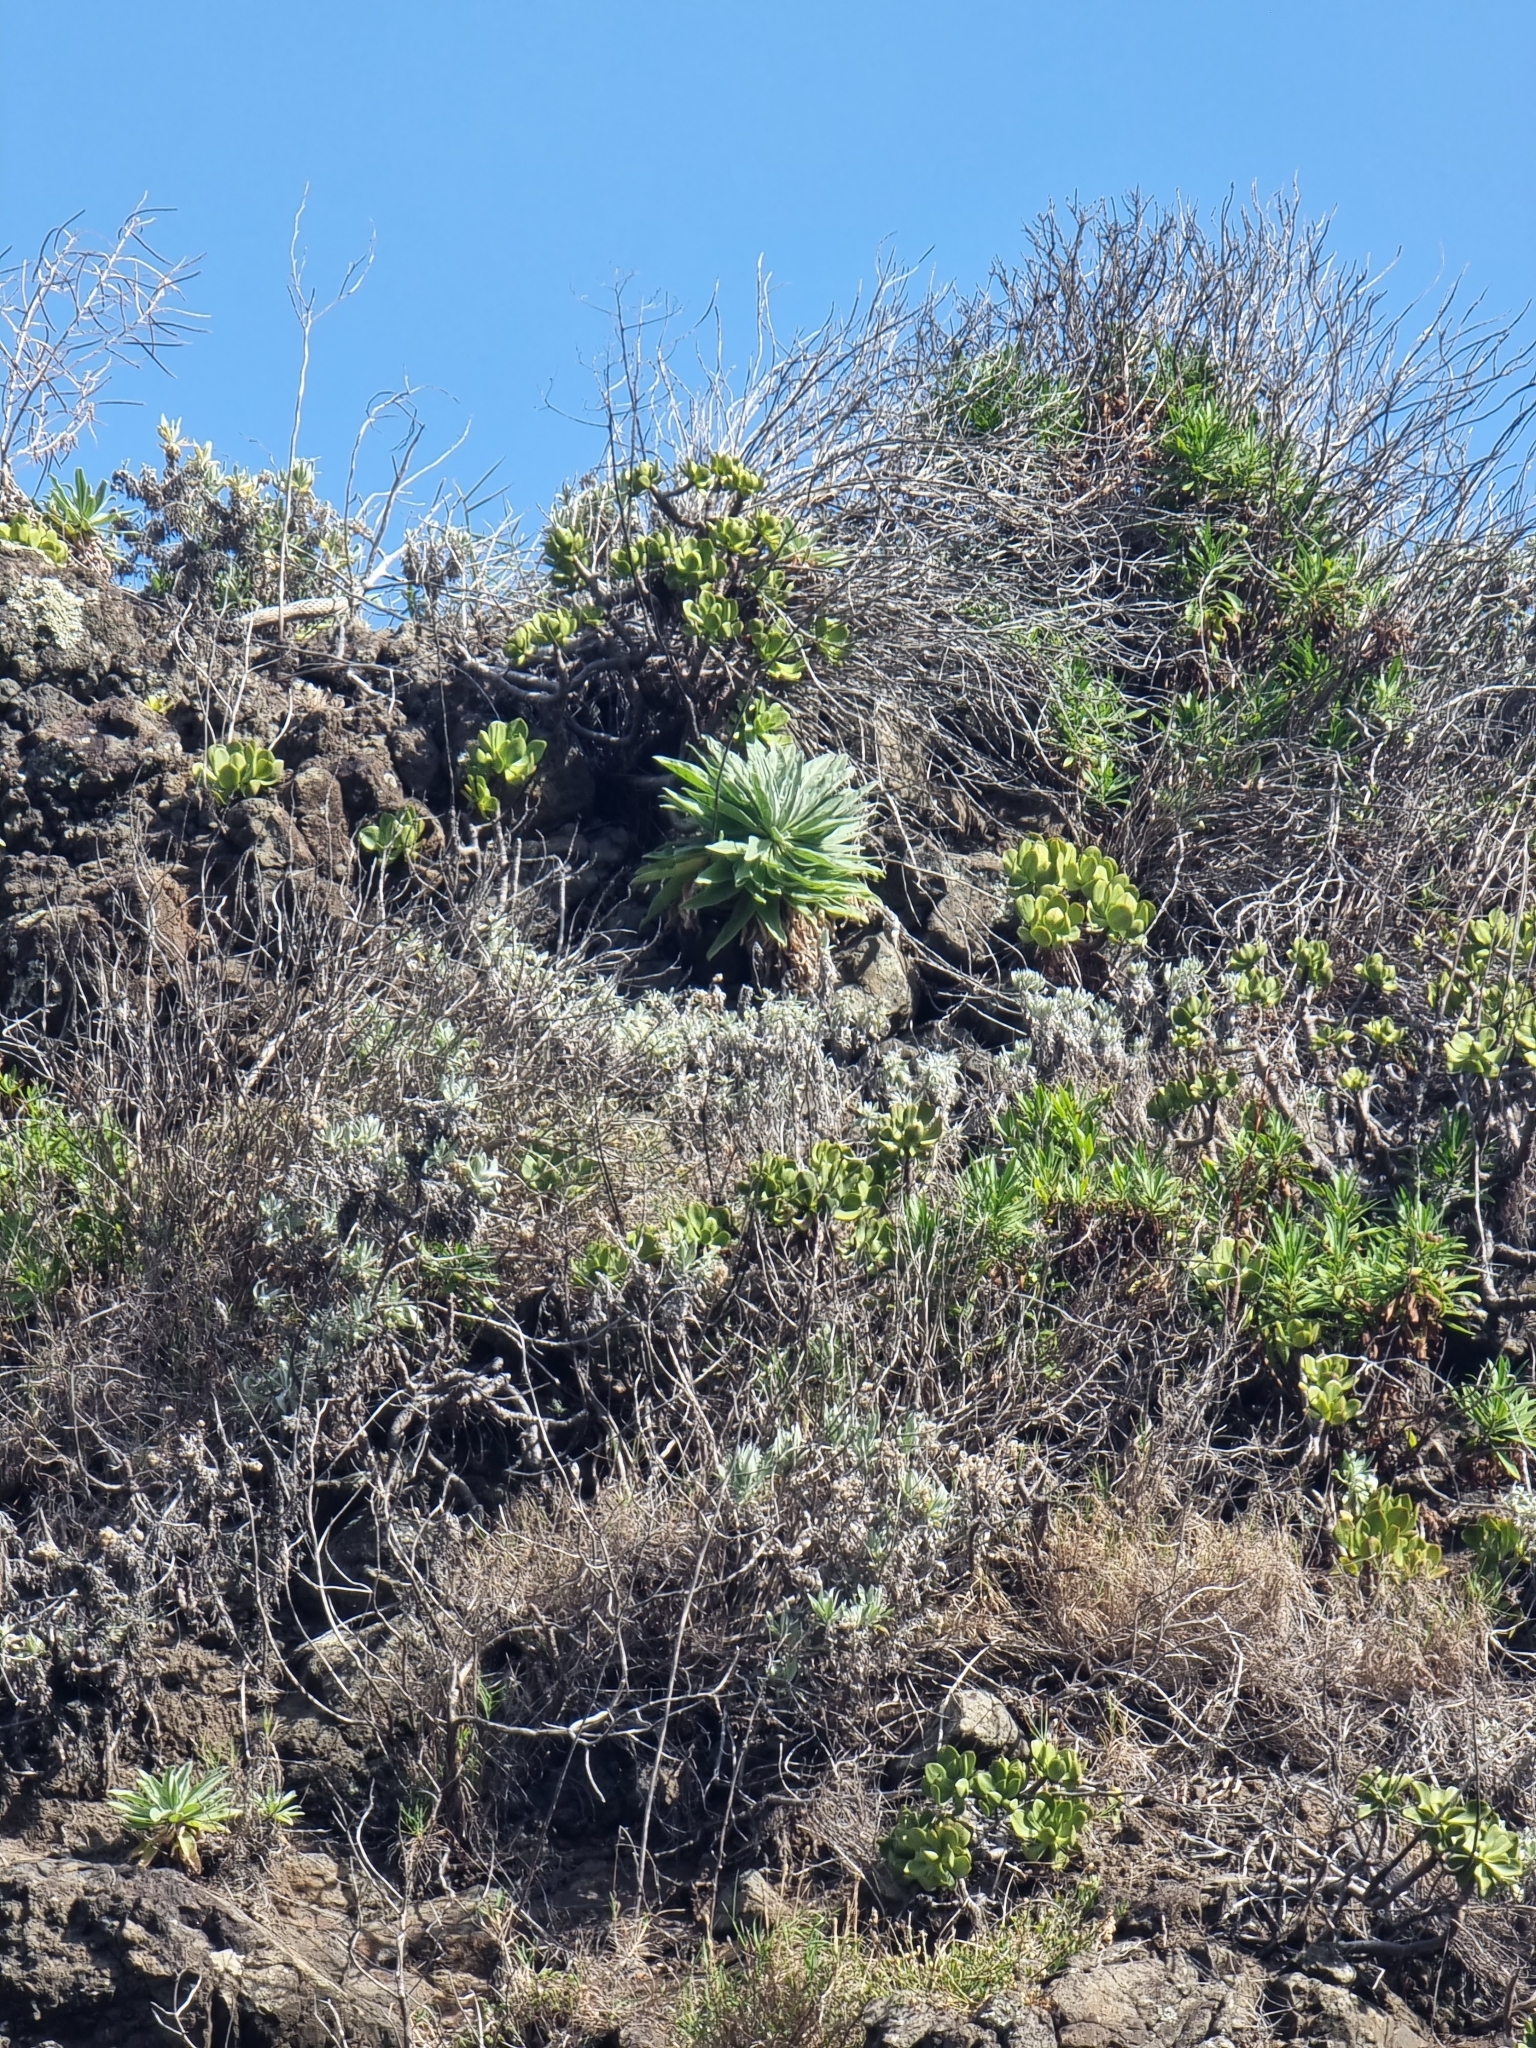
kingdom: Plantae
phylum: Tracheophyta
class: Magnoliopsida
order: Asterales
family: Asteraceae
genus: Andryala
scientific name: Andryala glandulosa
